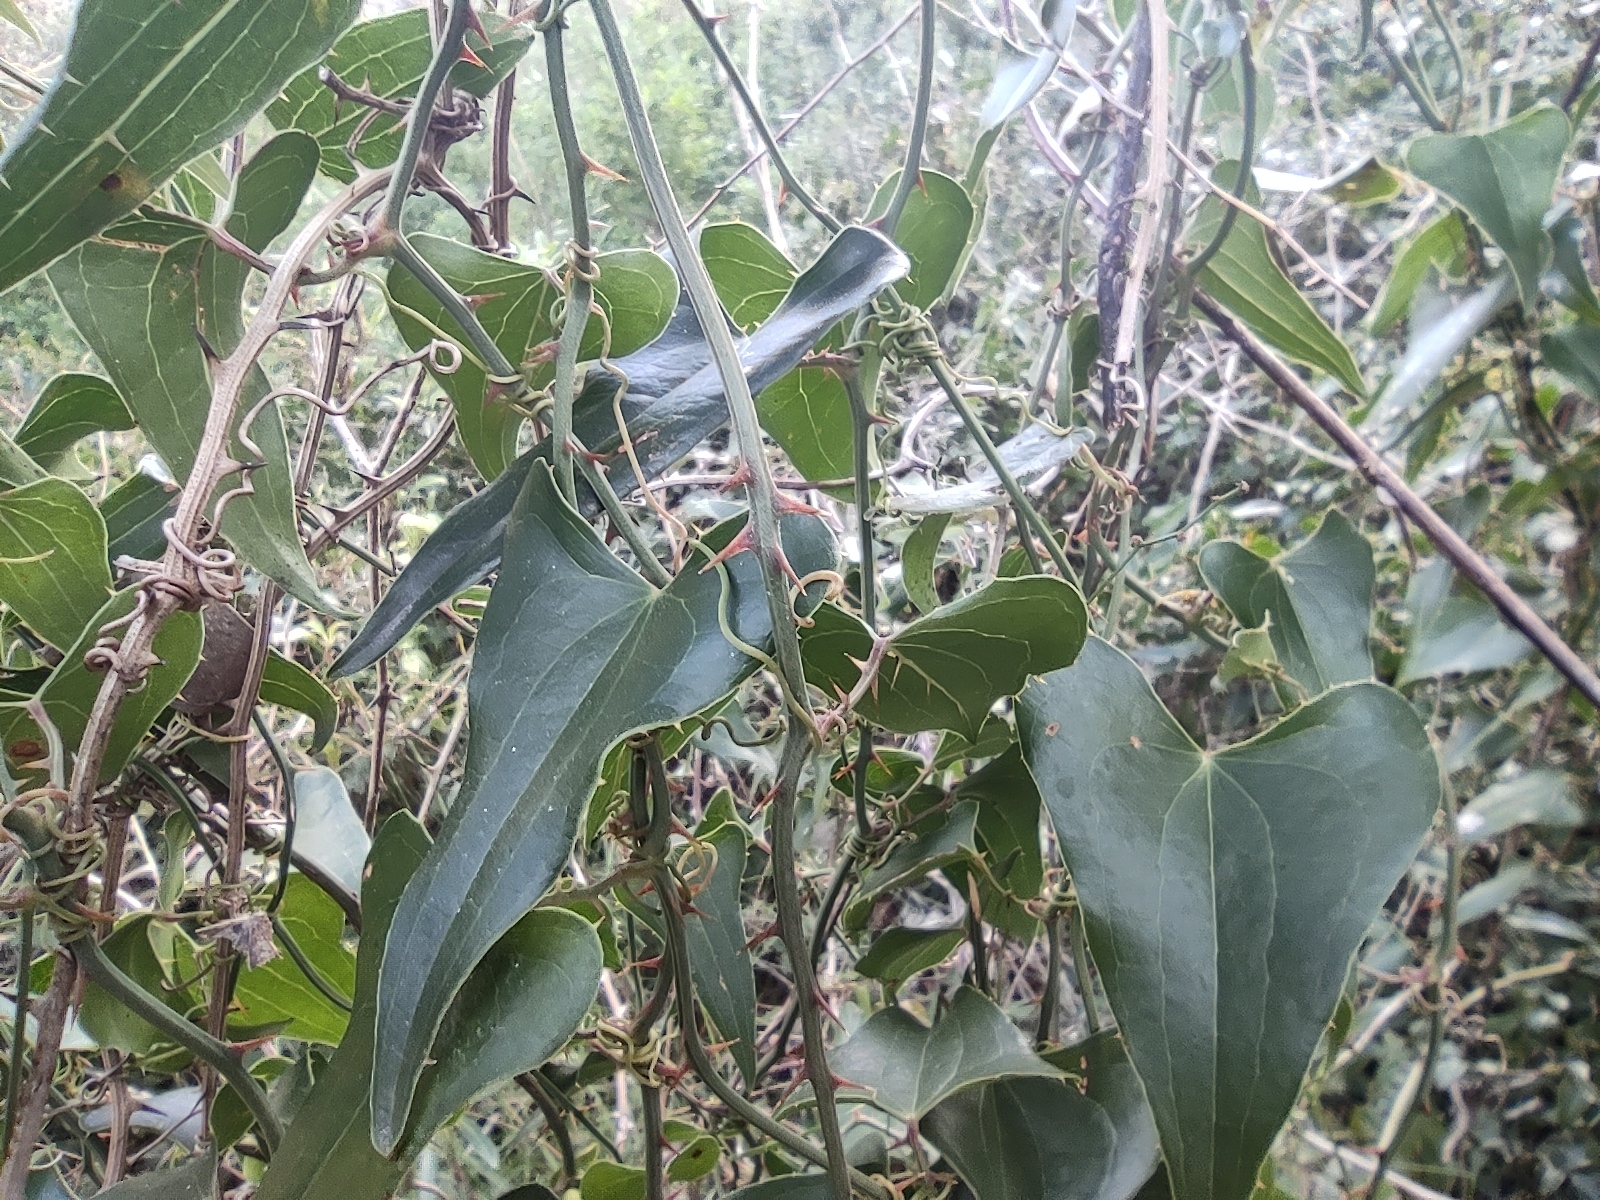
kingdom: Plantae
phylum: Tracheophyta
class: Liliopsida
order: Liliales
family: Smilacaceae
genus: Smilax
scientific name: Smilax aspera
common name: Common smilax
